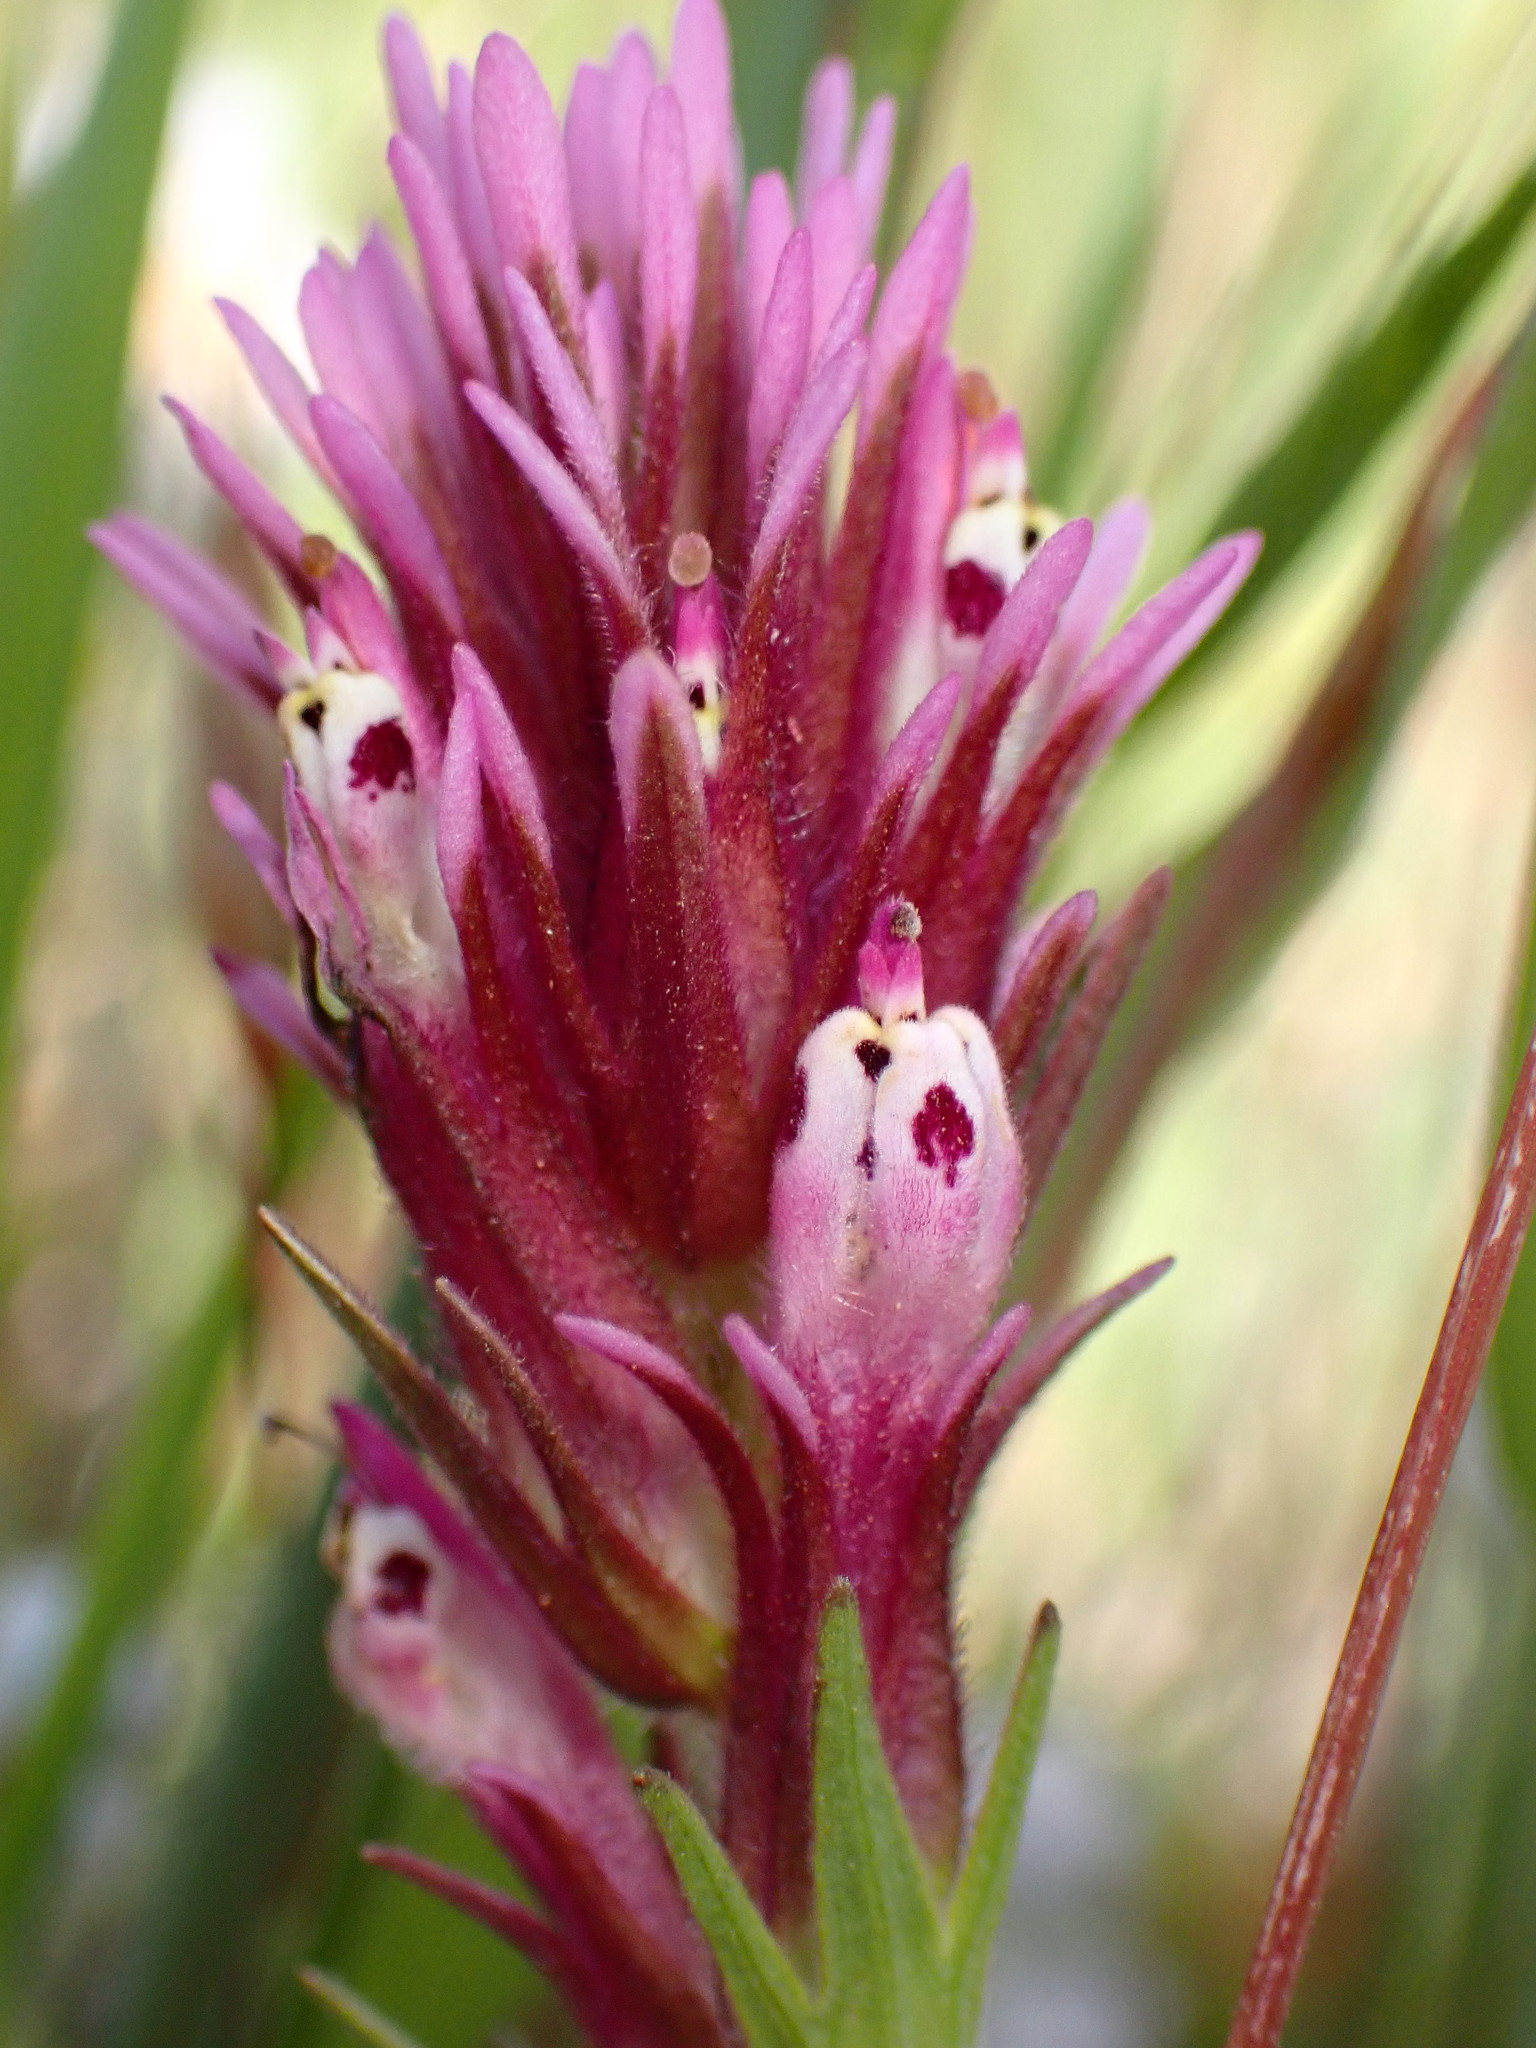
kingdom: Plantae
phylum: Tracheophyta
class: Magnoliopsida
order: Lamiales
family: Orobanchaceae
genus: Castilleja
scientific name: Castilleja densiflora
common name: Dense-flower indian paintbrush
